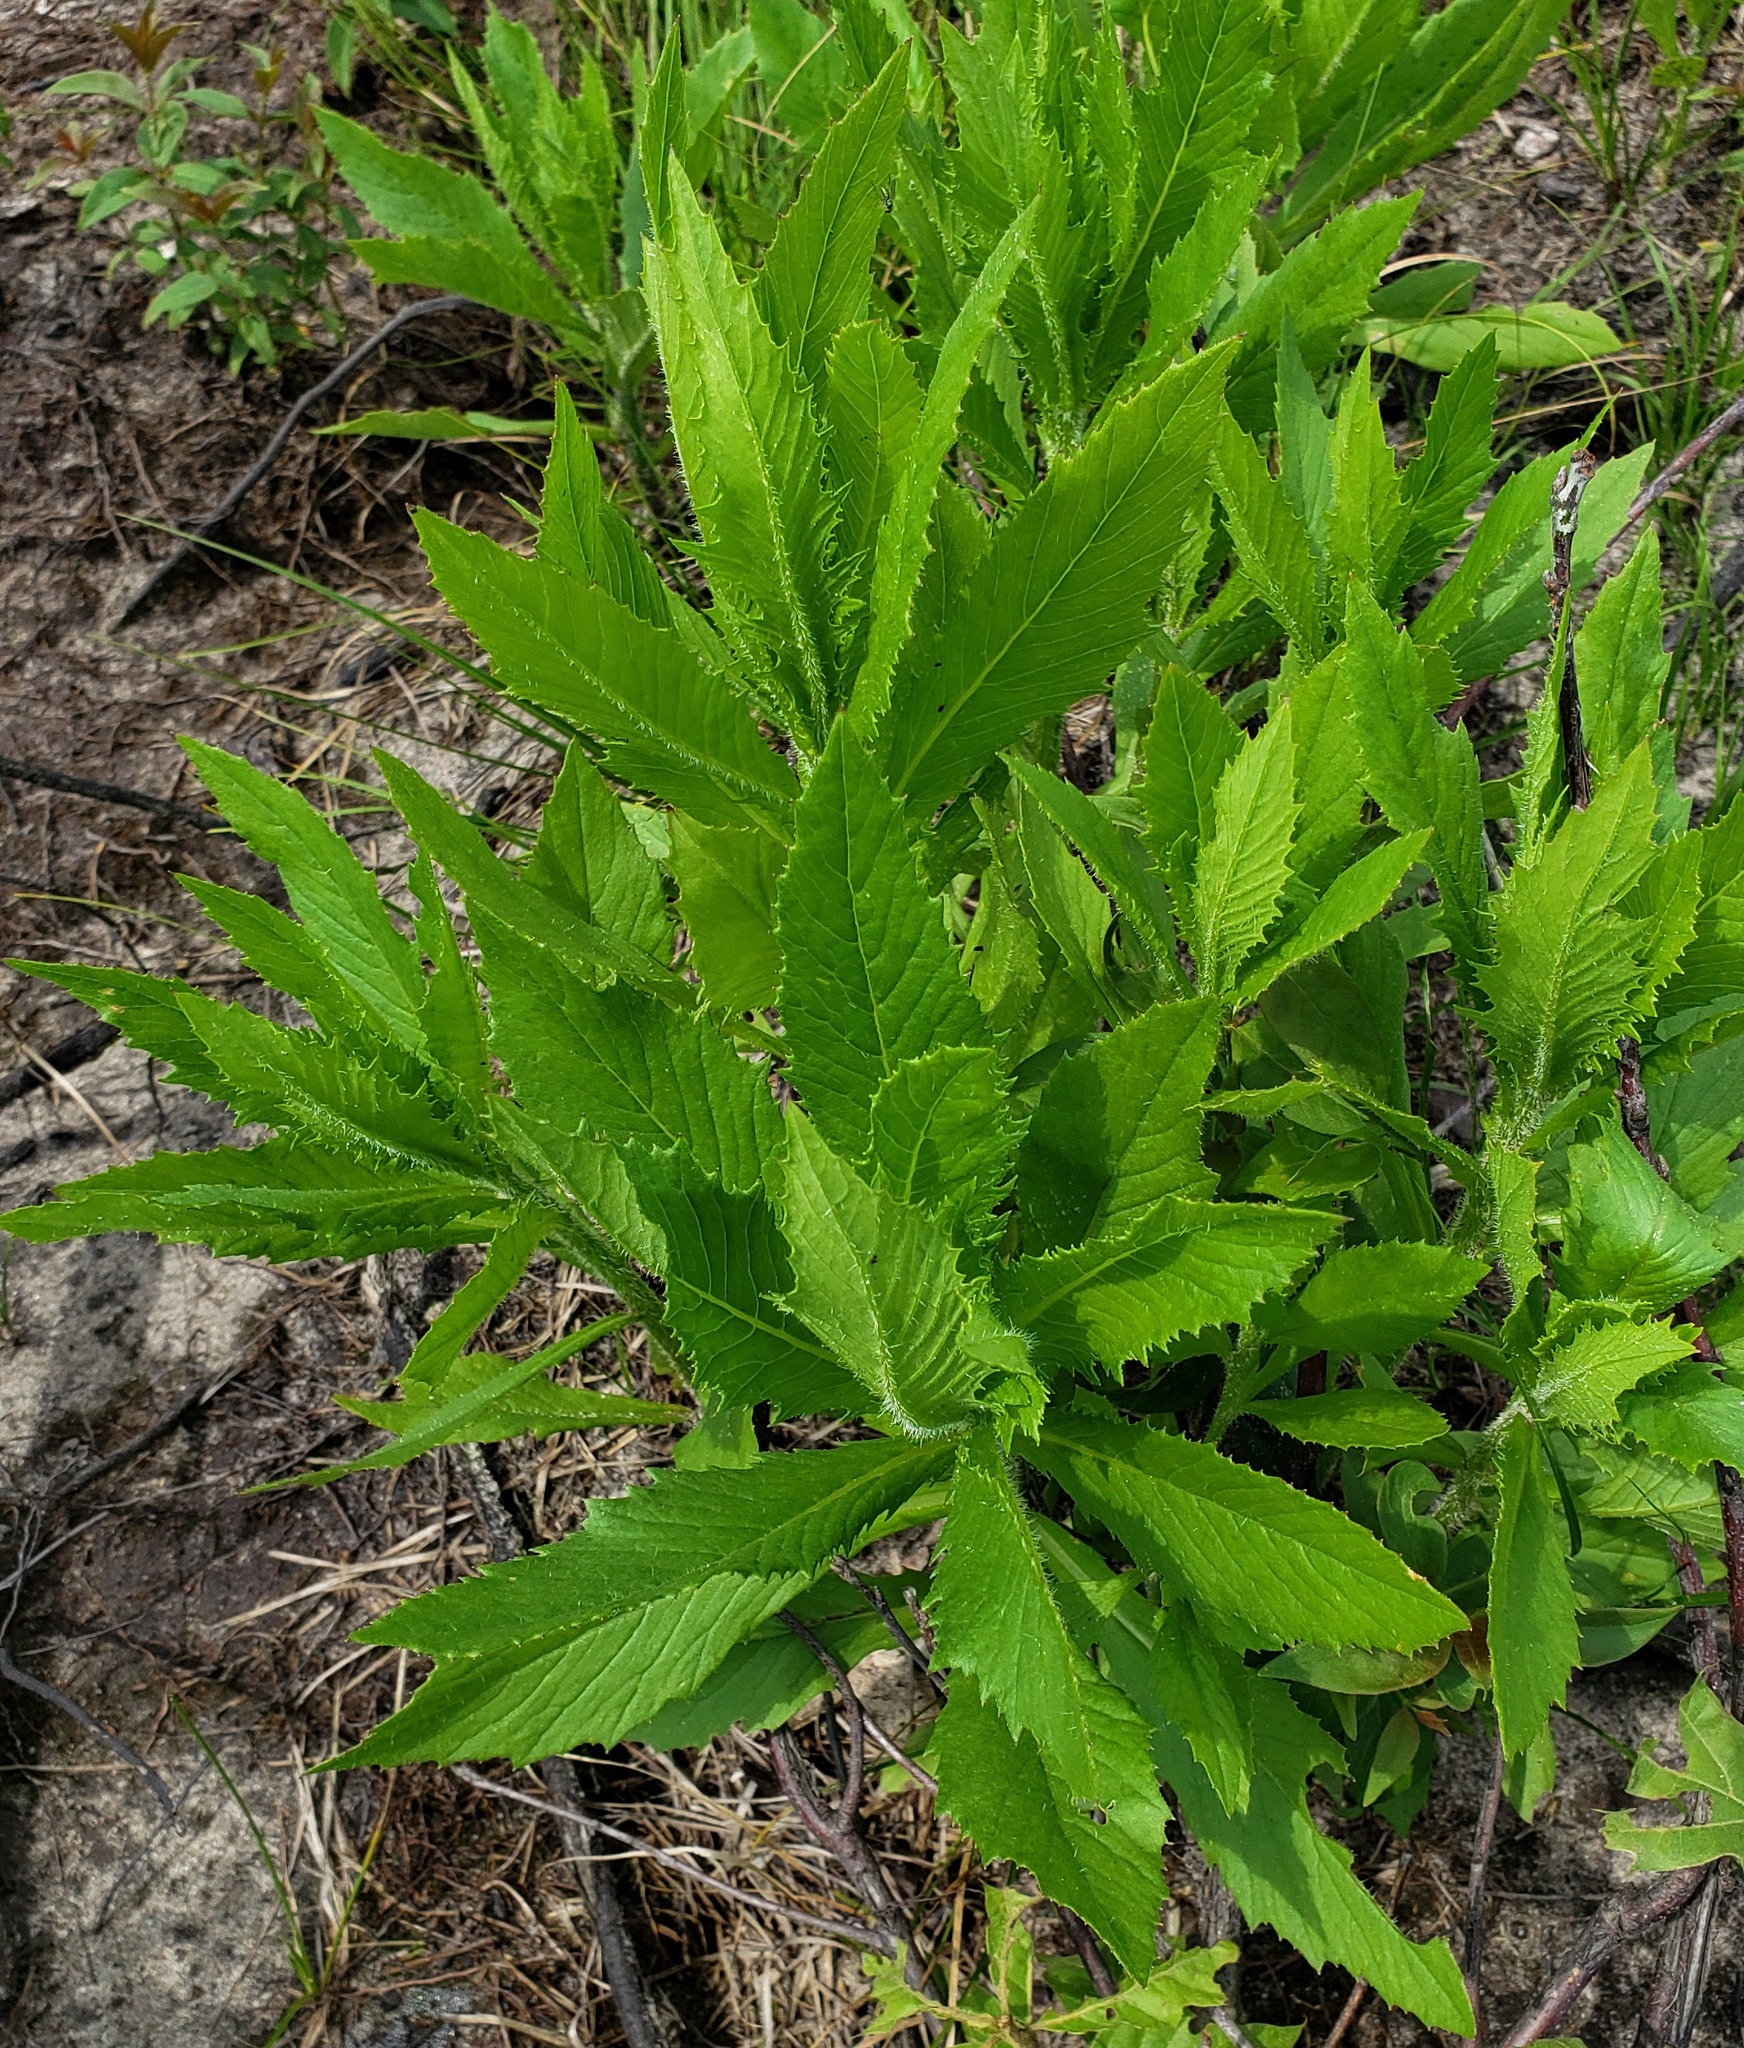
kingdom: Plantae
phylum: Tracheophyta
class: Magnoliopsida
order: Asterales
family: Asteraceae
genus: Erechtites
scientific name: Erechtites hieraciifolius
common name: American burnweed
